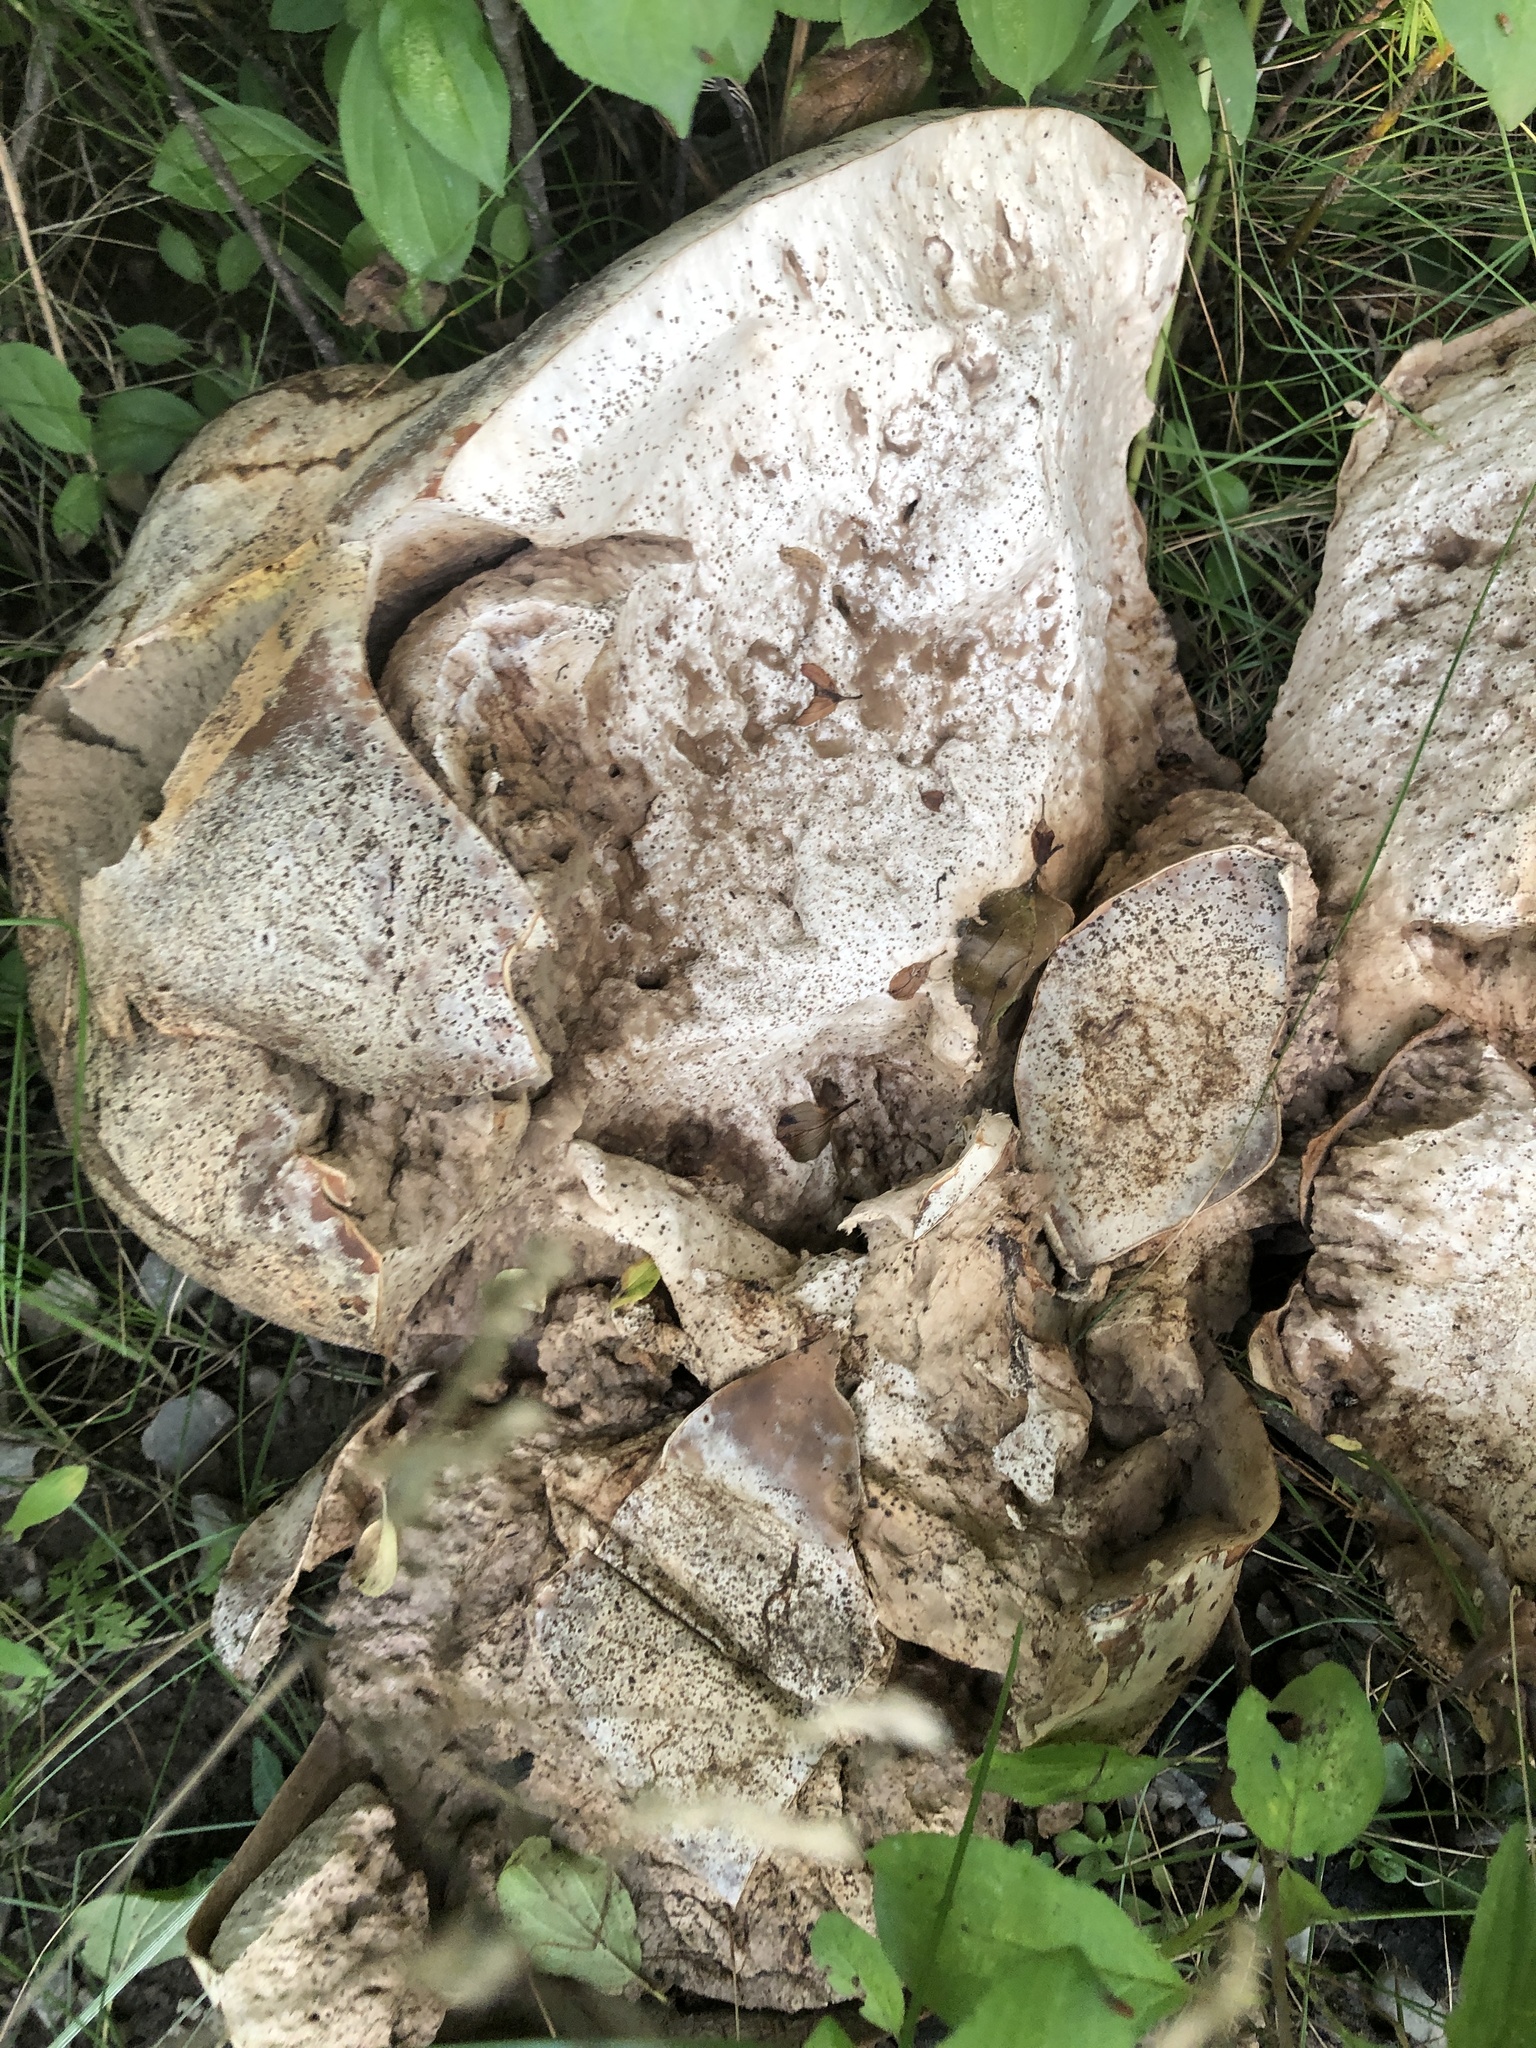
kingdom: Fungi
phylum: Basidiomycota
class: Agaricomycetes
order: Agaricales
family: Lycoperdaceae
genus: Calvatia
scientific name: Calvatia gigantea
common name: Giant puffball
